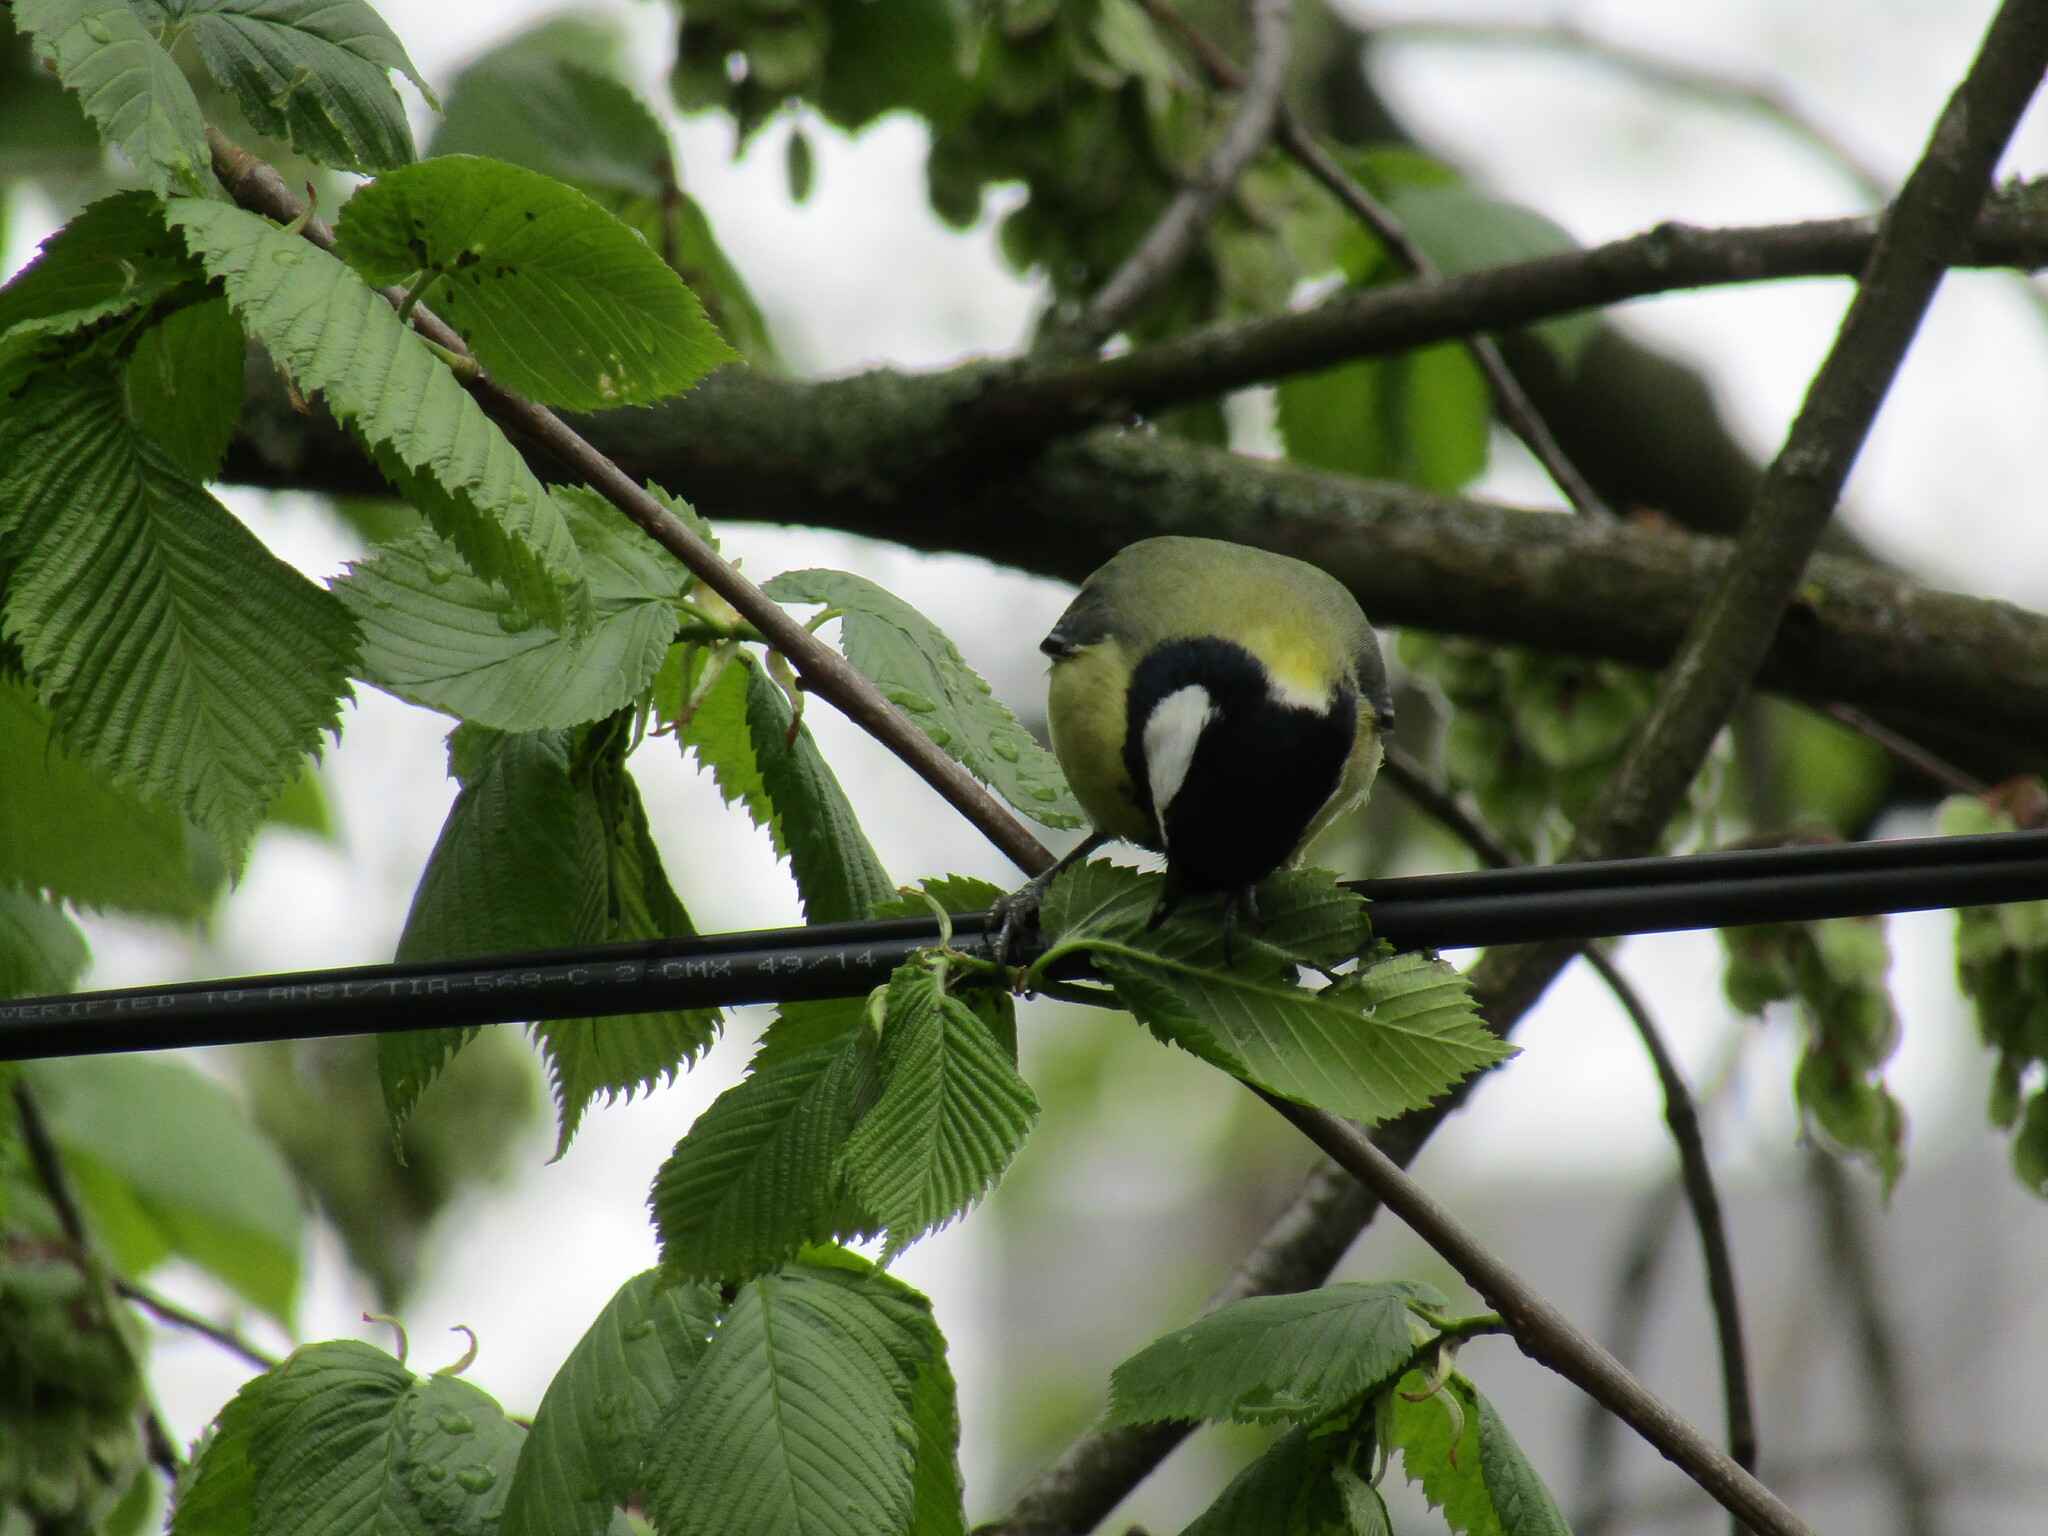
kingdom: Animalia
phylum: Chordata
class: Aves
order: Passeriformes
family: Paridae
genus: Parus
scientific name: Parus major
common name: Great tit
